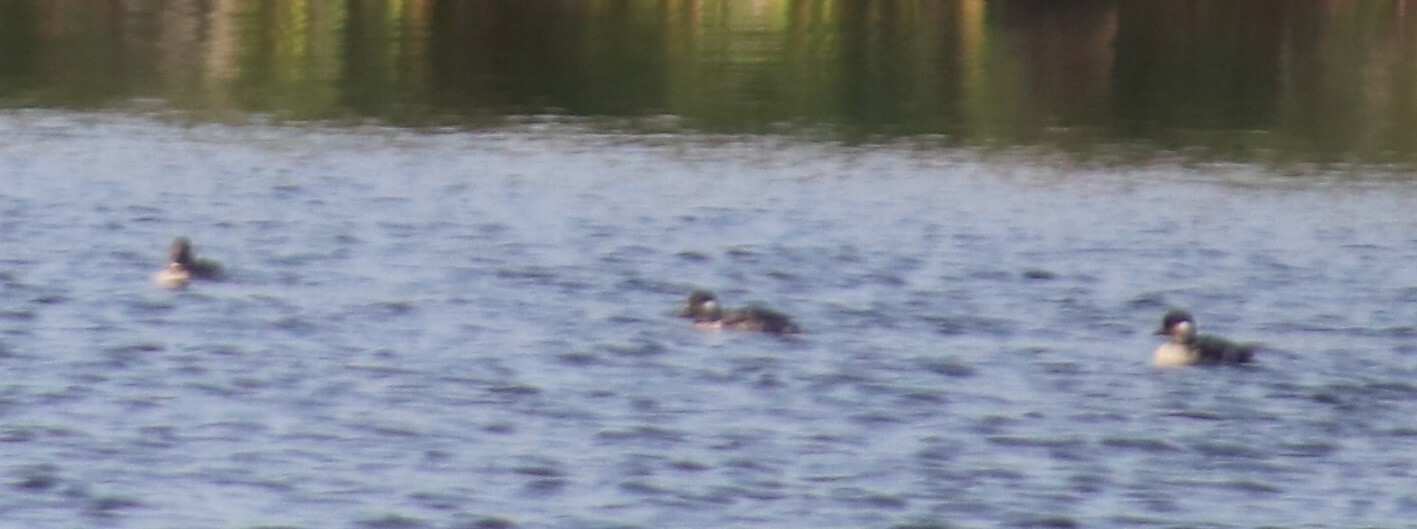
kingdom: Animalia
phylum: Chordata
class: Aves
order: Anseriformes
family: Anatidae
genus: Bucephala
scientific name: Bucephala albeola
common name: Bufflehead
